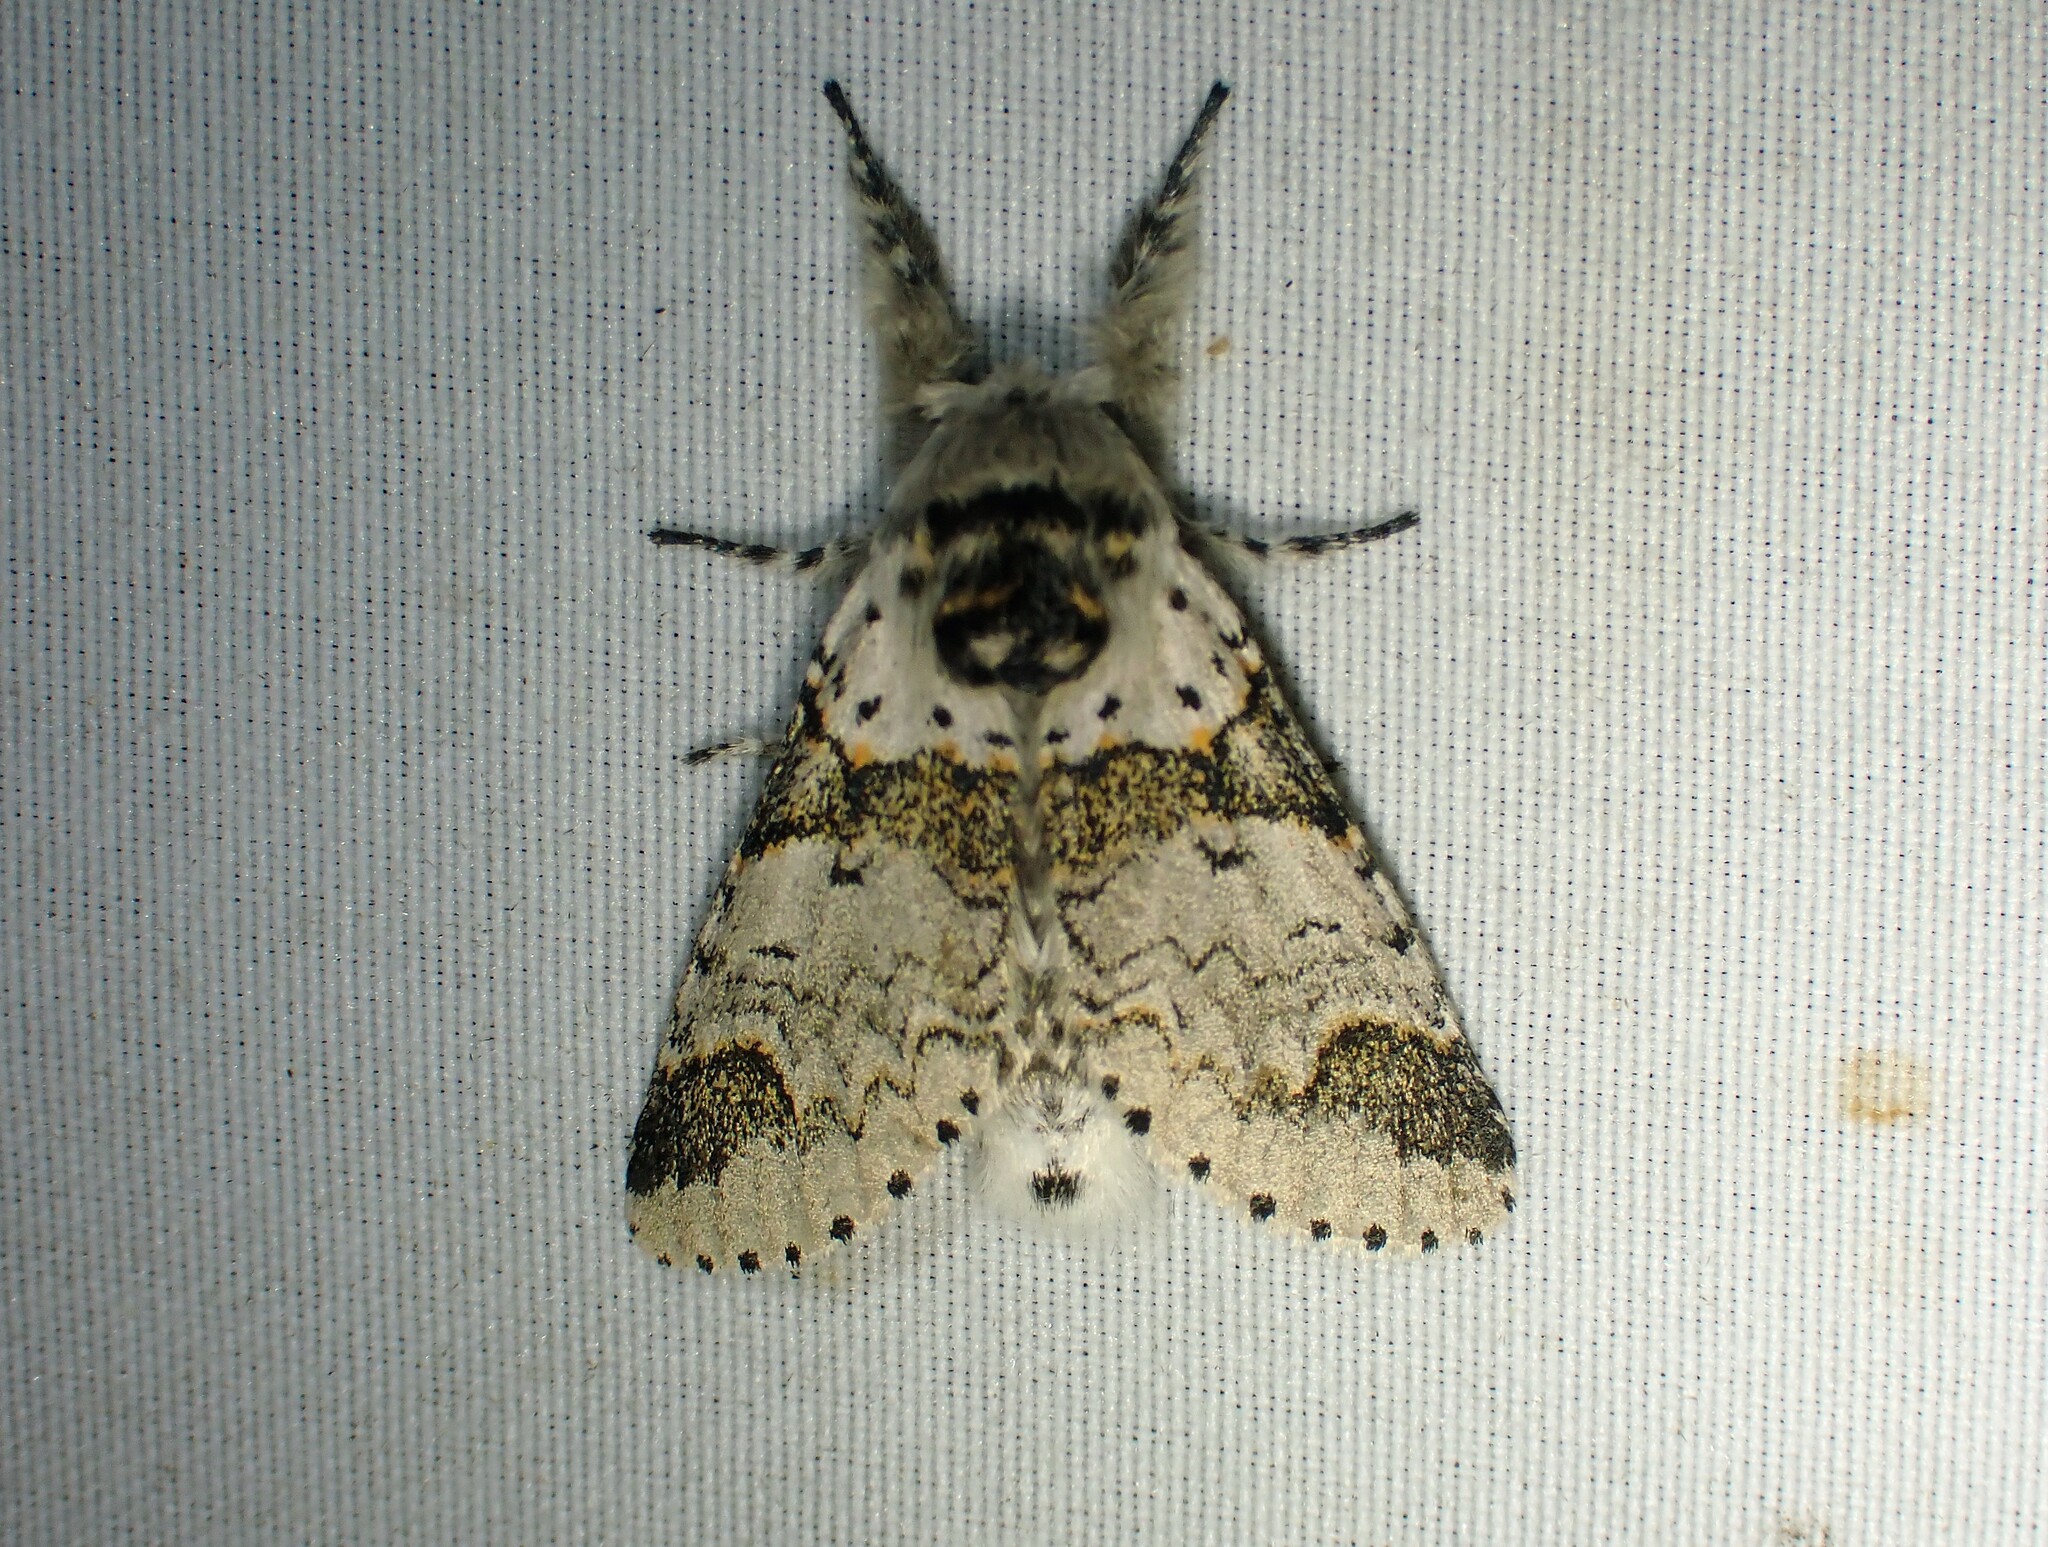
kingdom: Animalia
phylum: Arthropoda
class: Insecta
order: Lepidoptera
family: Notodontidae
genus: Furcula
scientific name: Furcula occidentalis
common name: Western furcula moth
